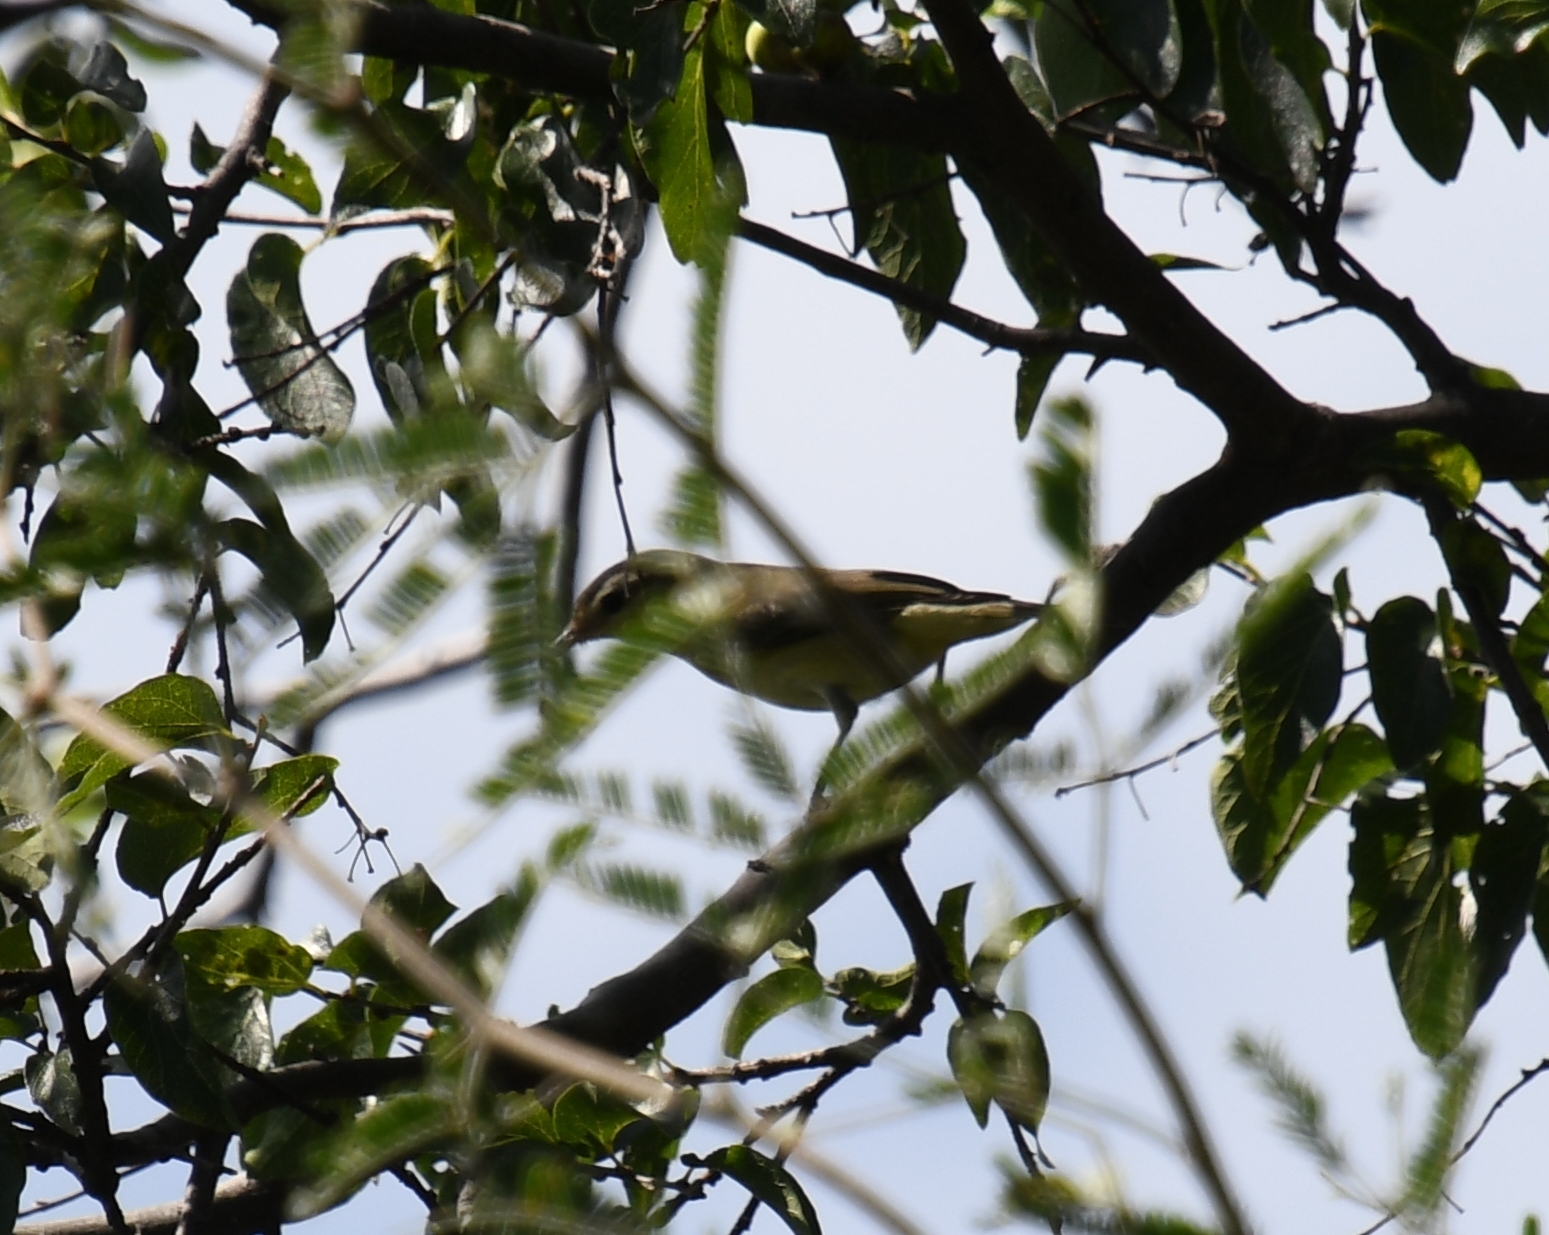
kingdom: Animalia
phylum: Chordata
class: Aves
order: Passeriformes
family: Vireonidae
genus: Vireo
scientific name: Vireo gilvus
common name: Warbling vireo
